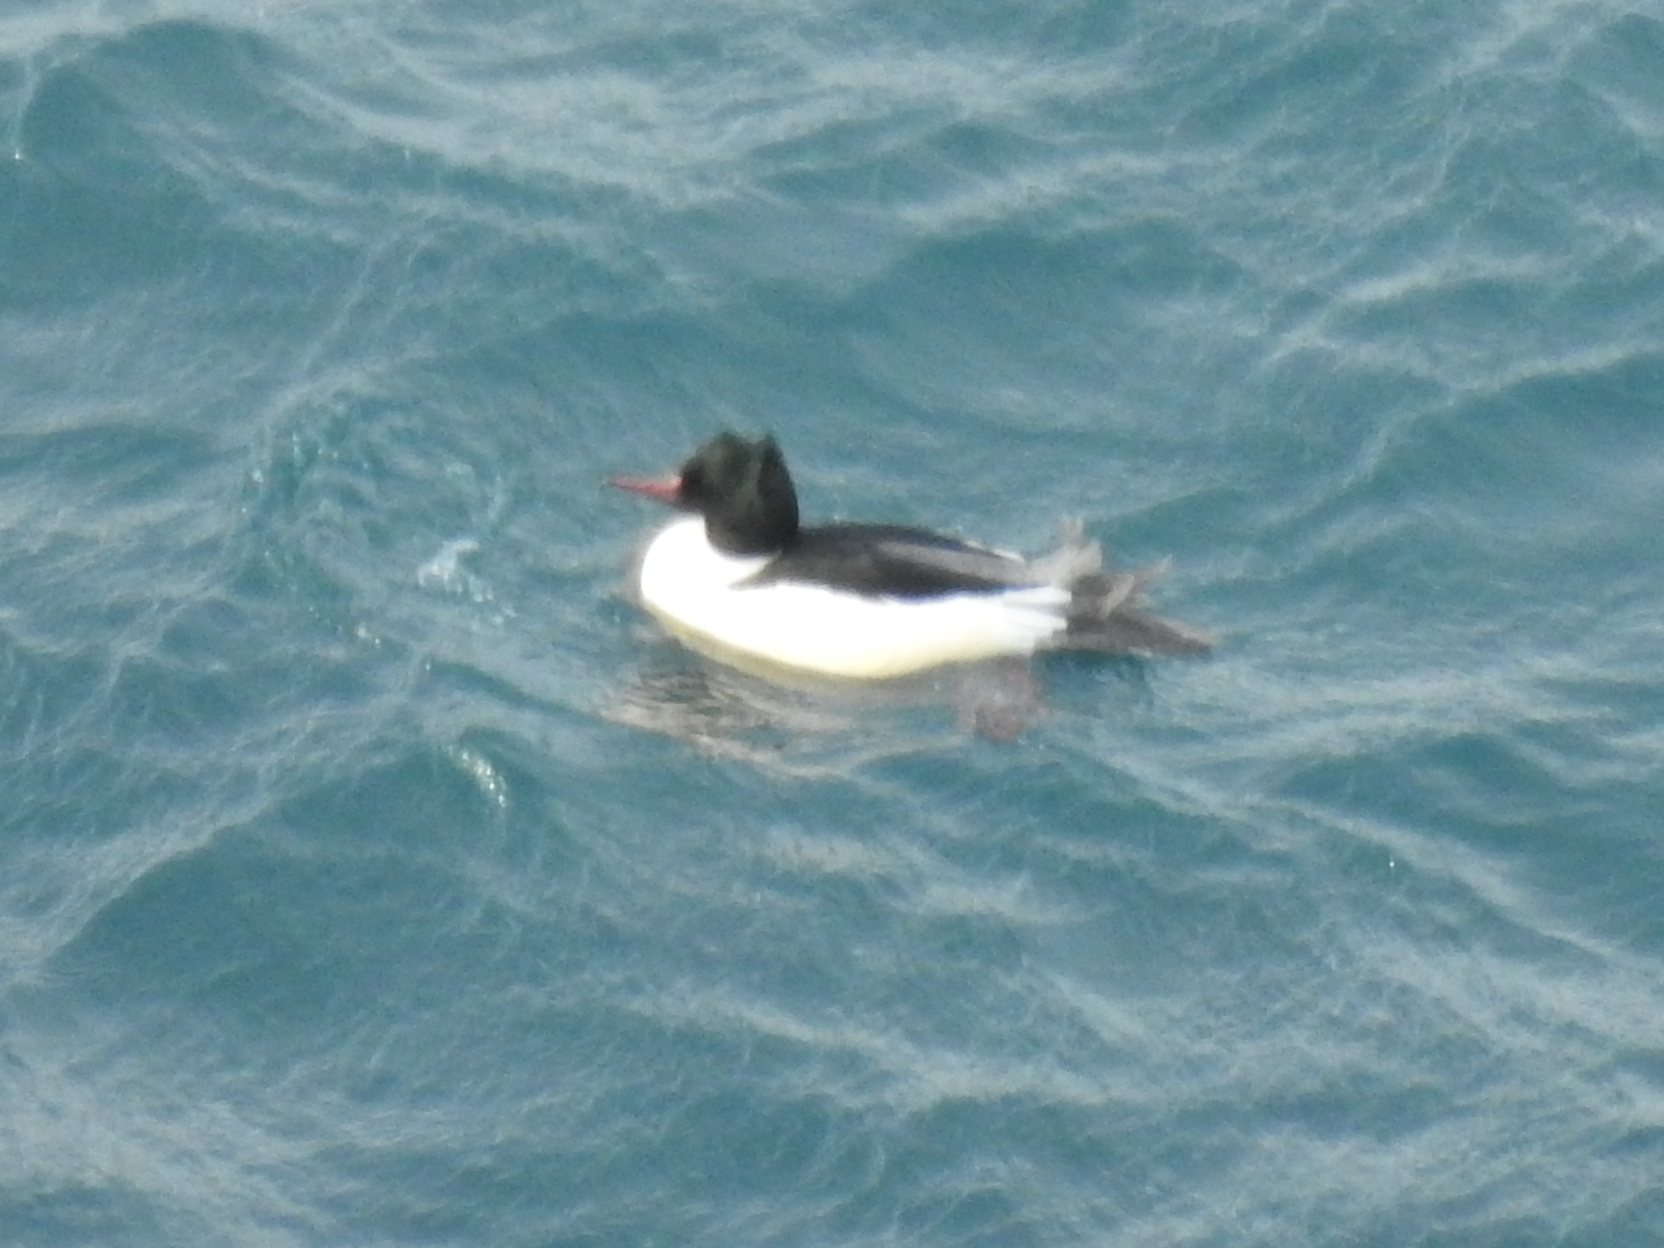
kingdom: Animalia
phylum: Chordata
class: Aves
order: Anseriformes
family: Anatidae
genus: Mergus
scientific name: Mergus merganser
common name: Common merganser
